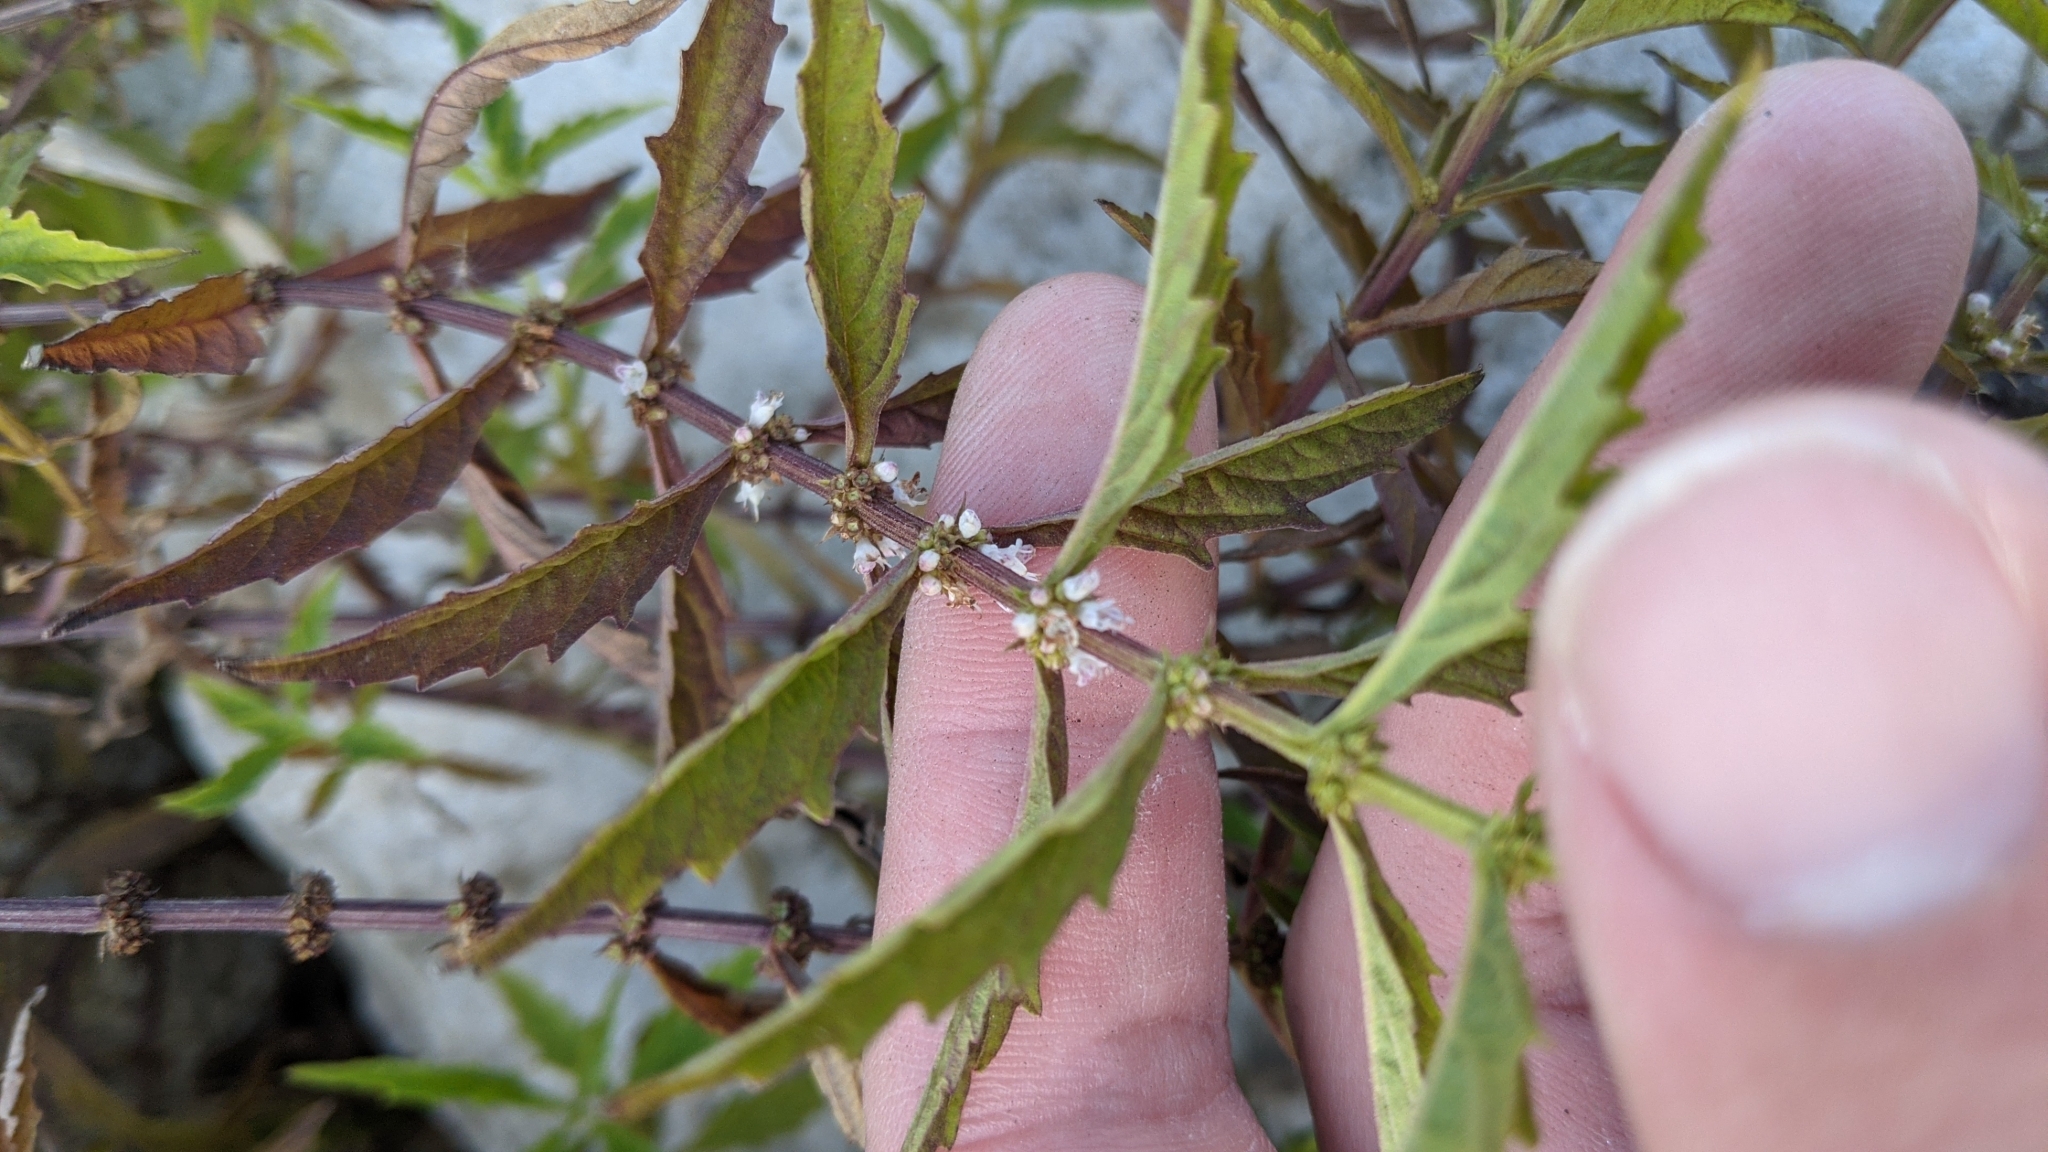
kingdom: Plantae
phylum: Tracheophyta
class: Magnoliopsida
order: Lamiales
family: Lamiaceae
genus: Lycopus
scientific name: Lycopus americanus
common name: American bugleweed
